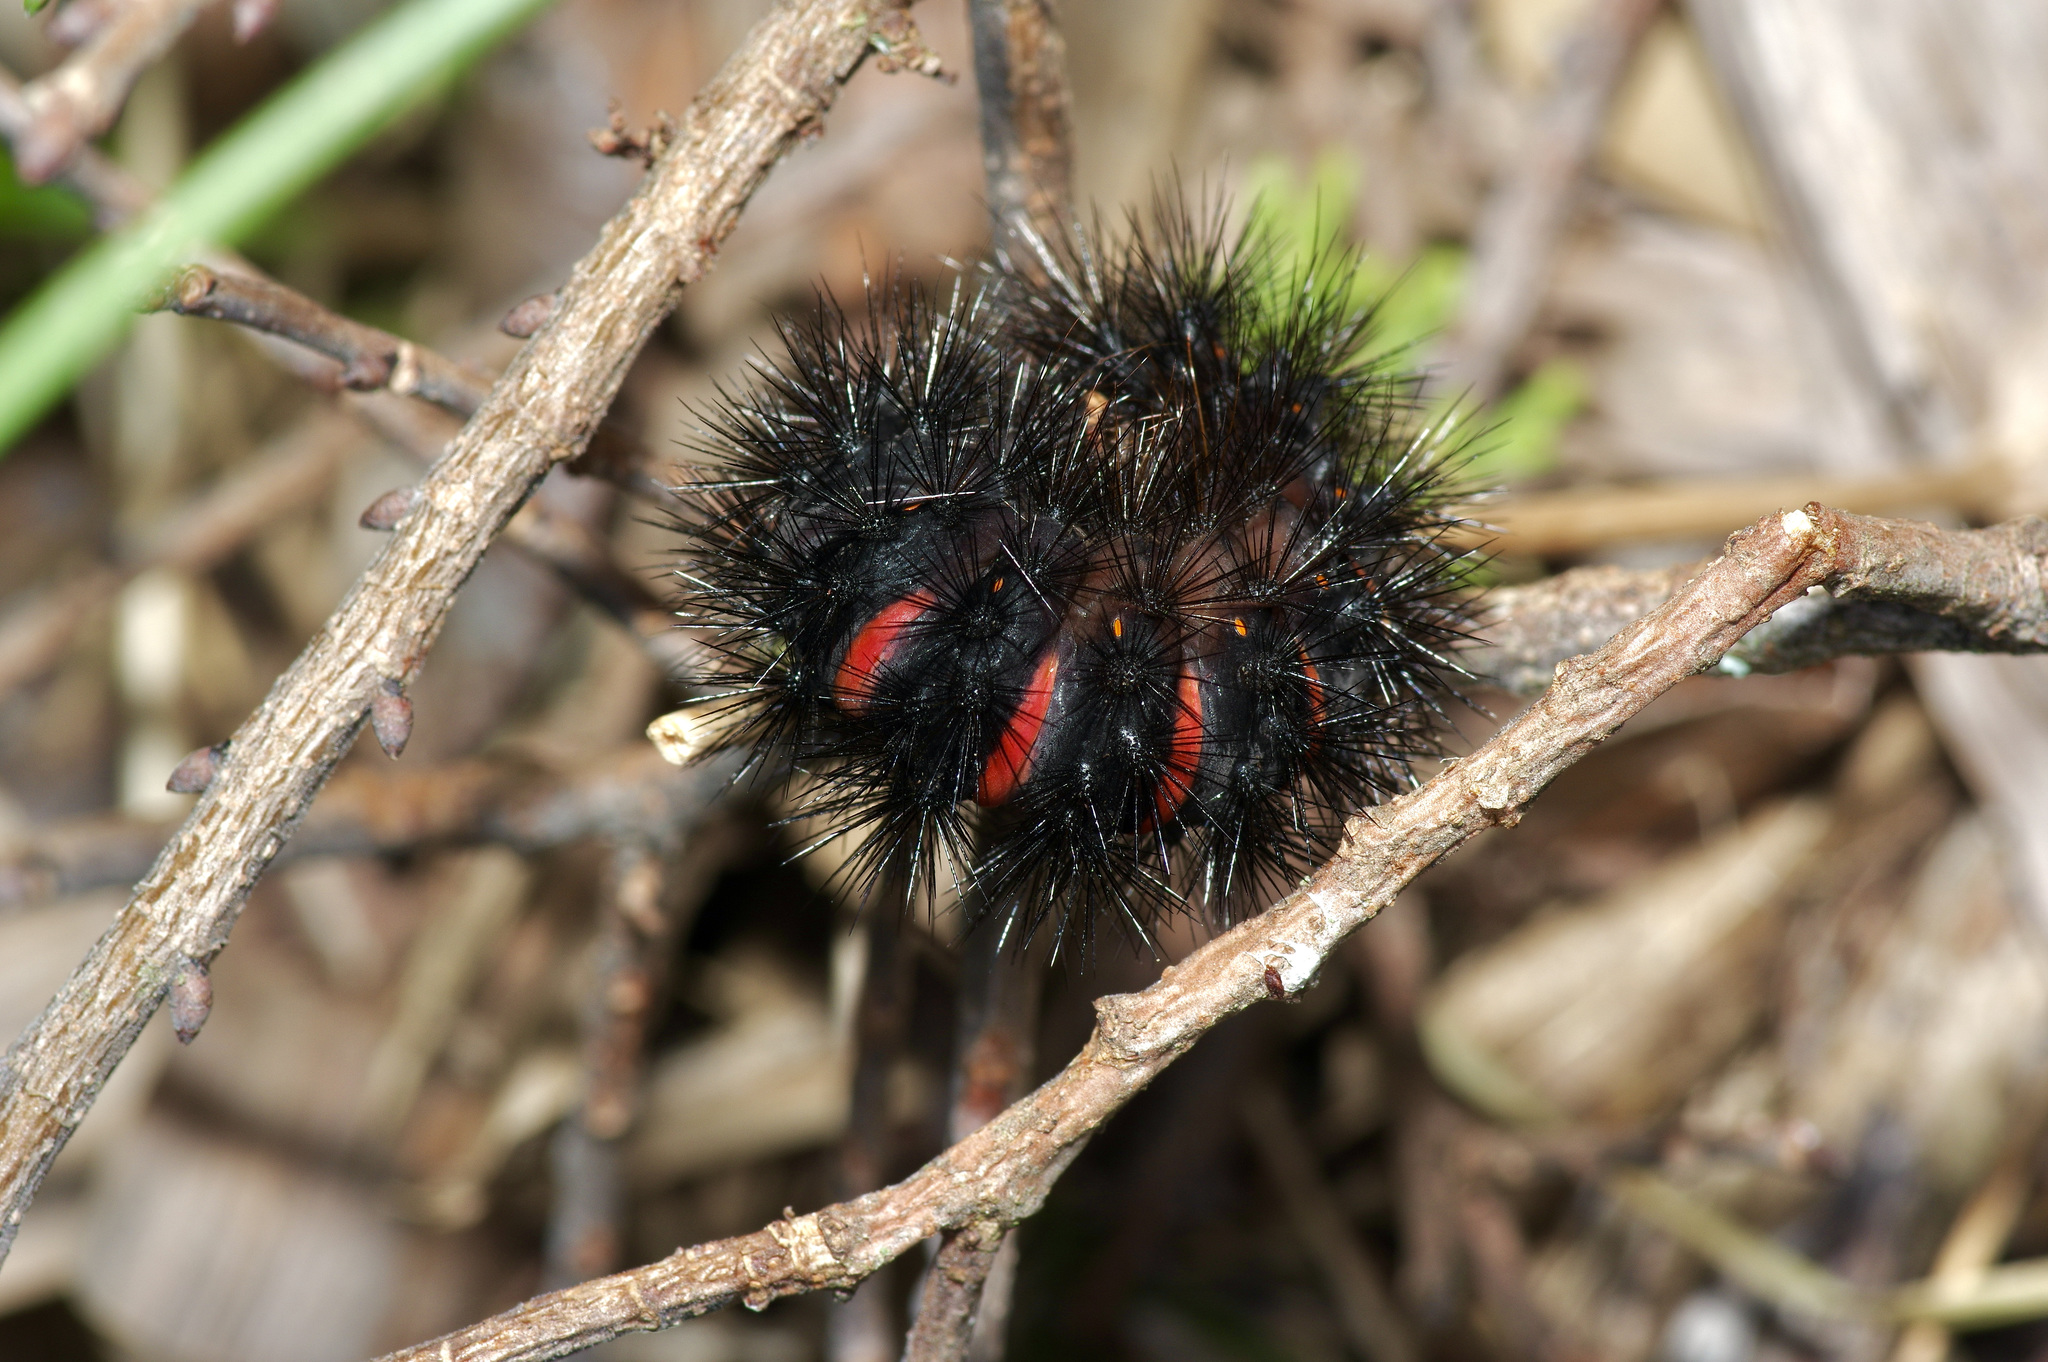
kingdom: Animalia
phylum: Arthropoda
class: Insecta
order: Lepidoptera
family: Erebidae
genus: Hypercompe
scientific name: Hypercompe scribonia
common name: Giant leopard moth
